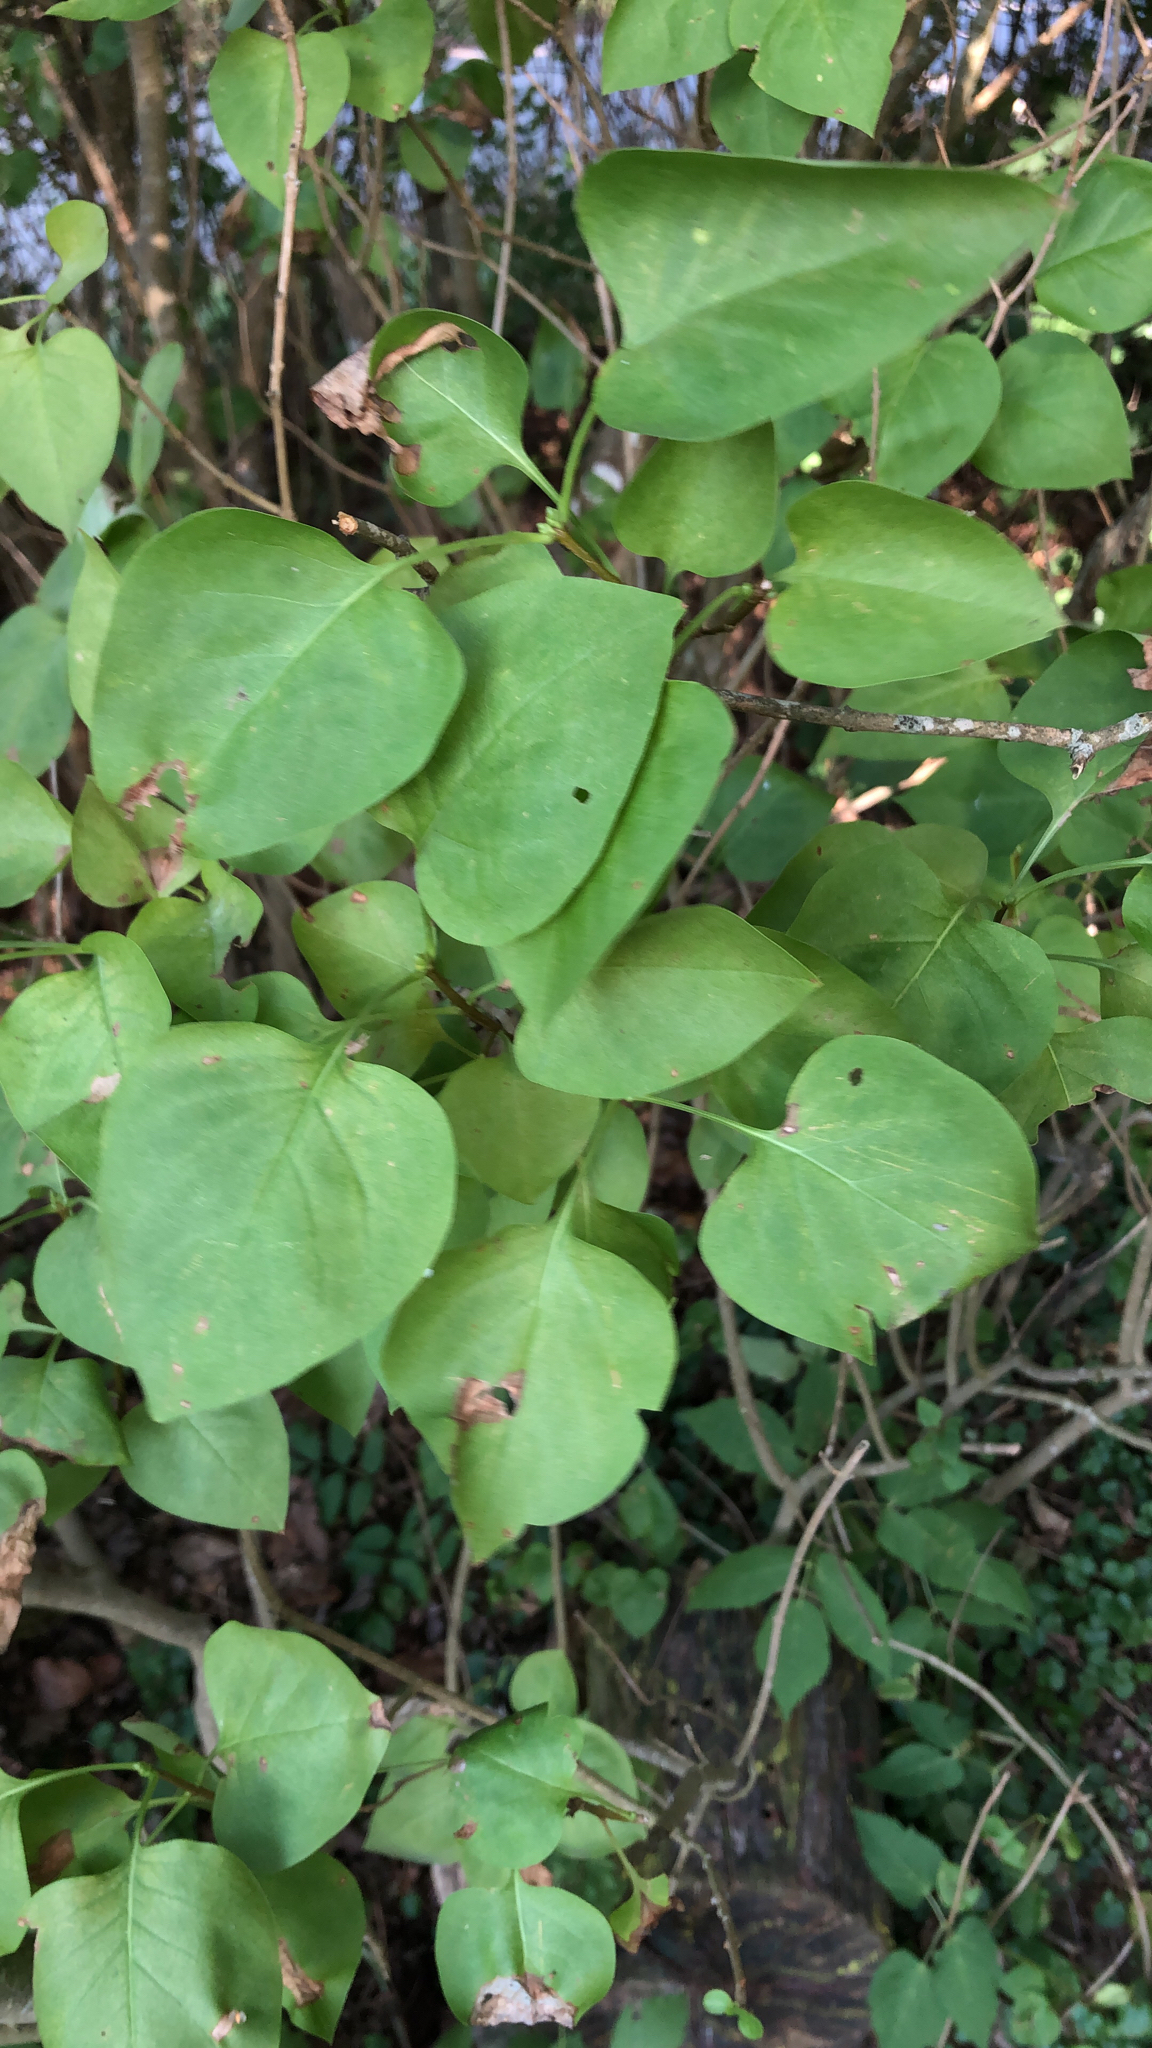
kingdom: Plantae
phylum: Tracheophyta
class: Magnoliopsida
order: Lamiales
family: Oleaceae
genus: Syringa
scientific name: Syringa vulgaris
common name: Common lilac
